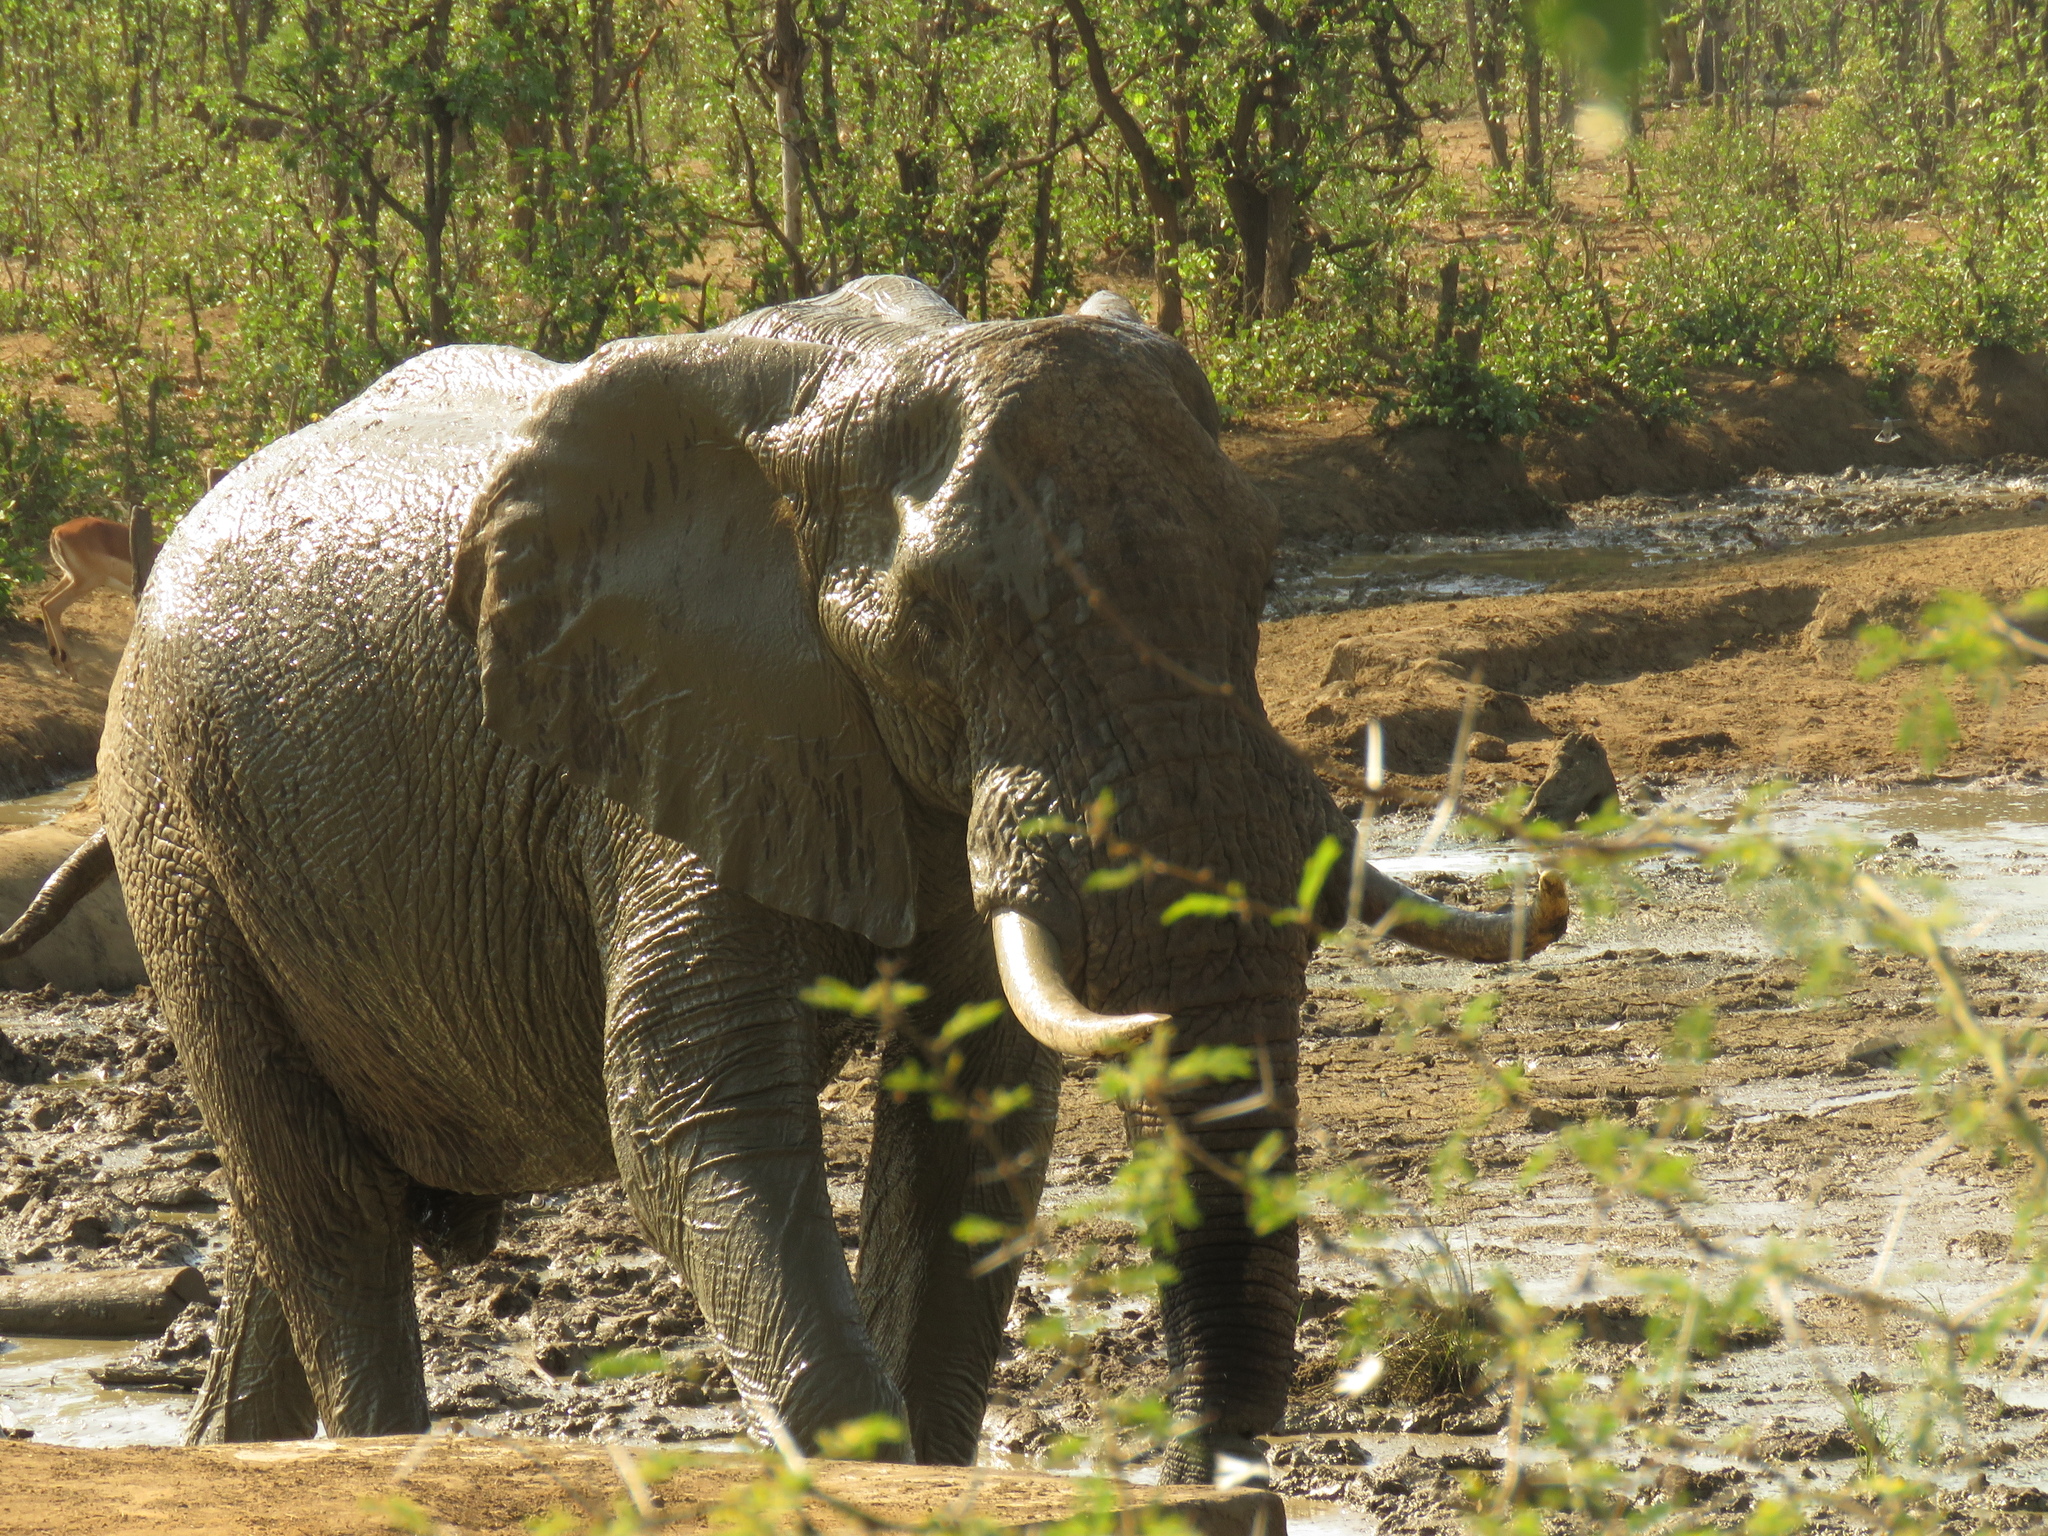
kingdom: Animalia
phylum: Chordata
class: Mammalia
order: Proboscidea
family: Elephantidae
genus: Loxodonta
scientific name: Loxodonta africana
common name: African elephant
